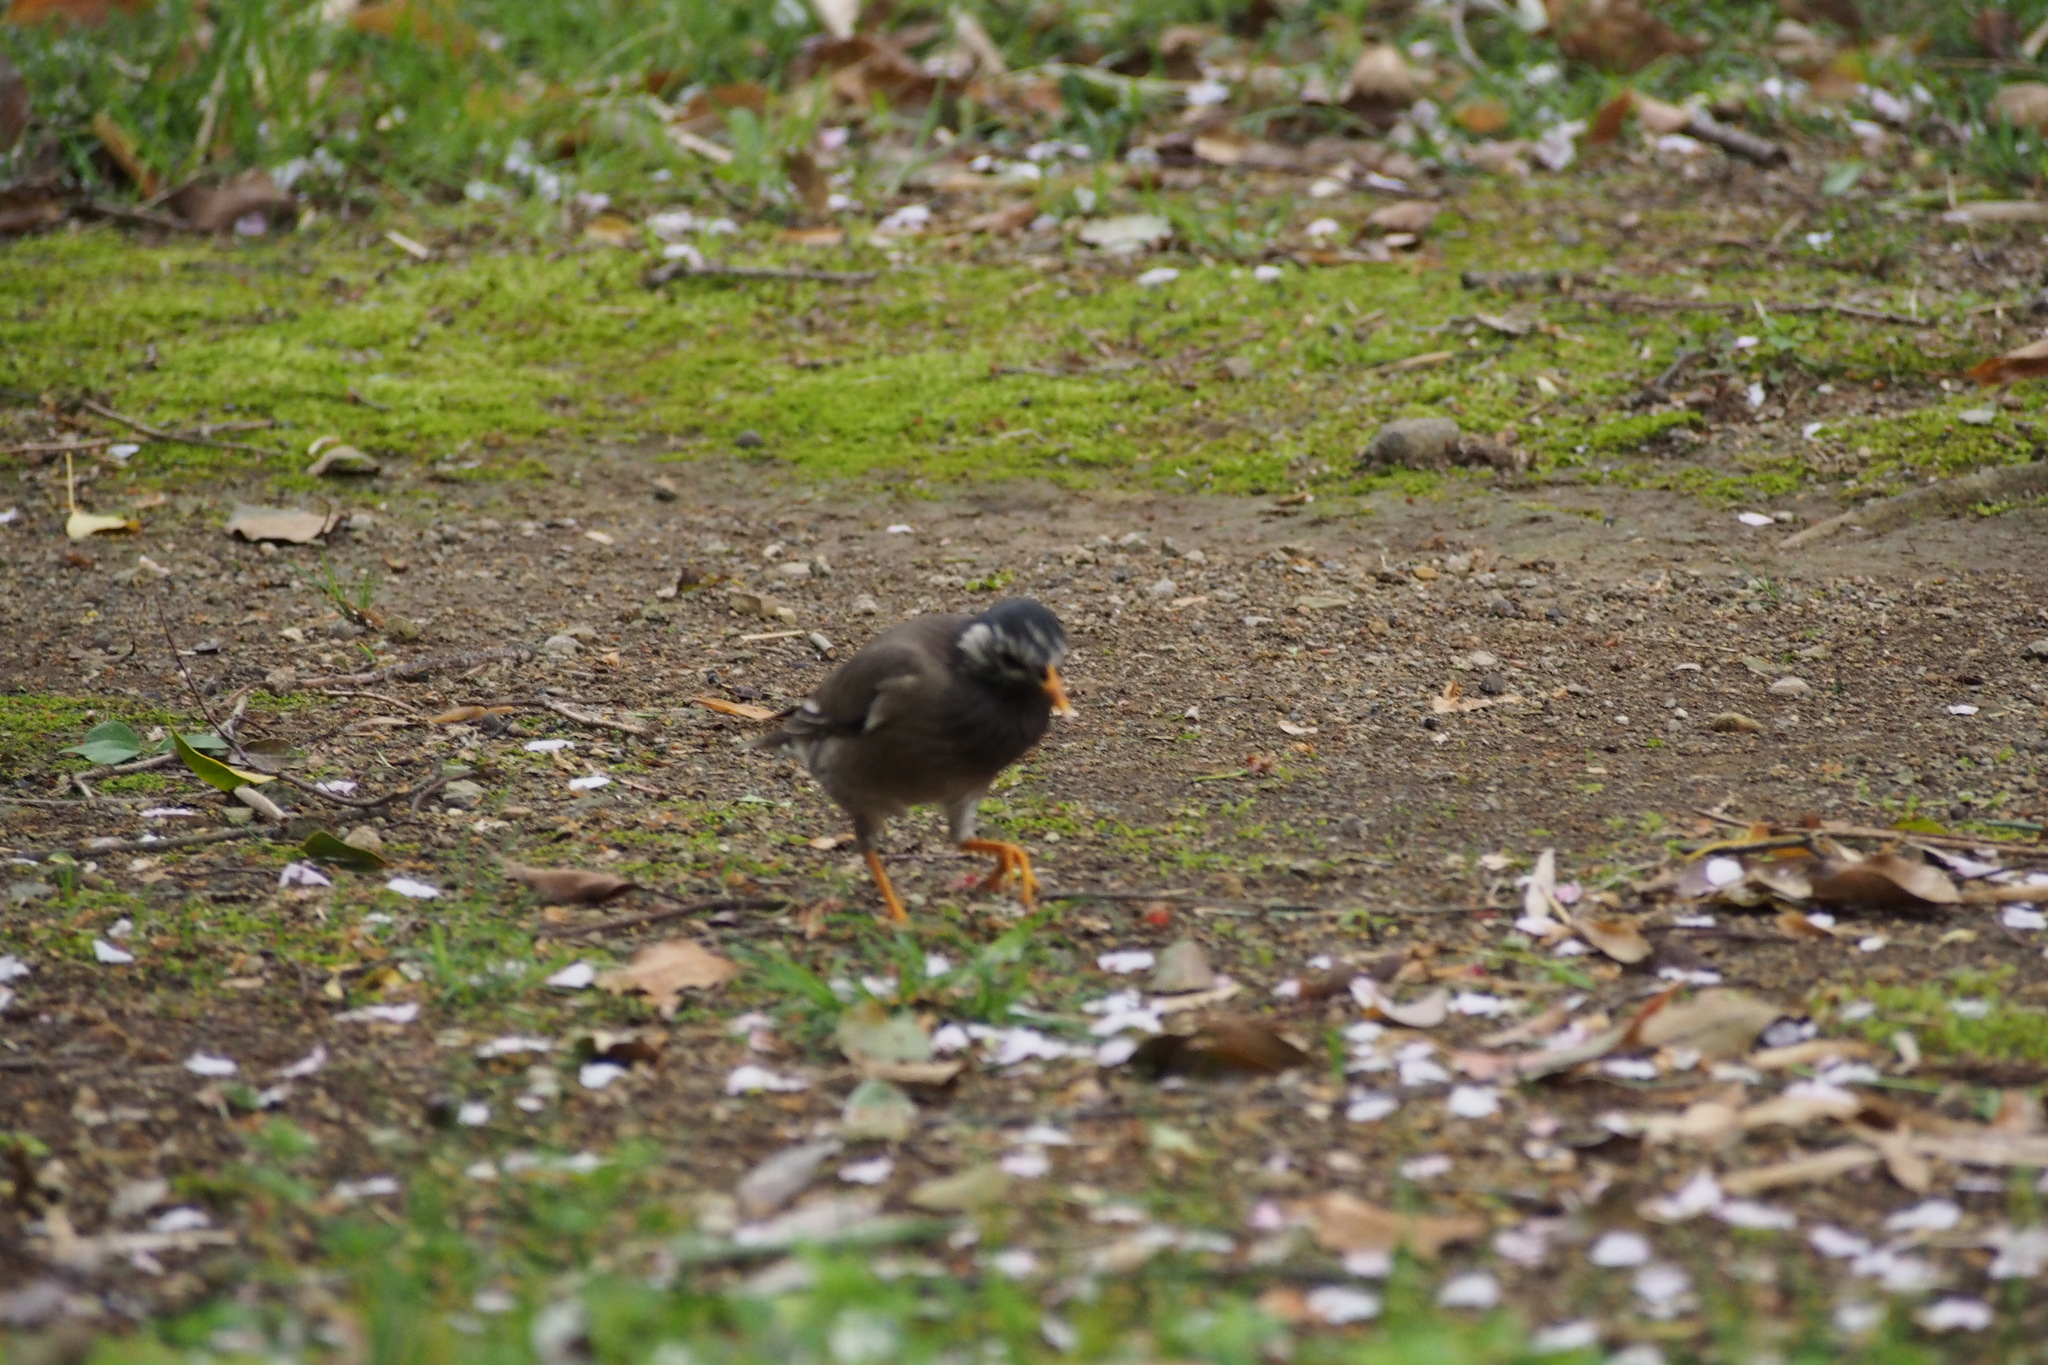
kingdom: Animalia
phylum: Chordata
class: Aves
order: Passeriformes
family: Sturnidae
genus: Spodiopsar
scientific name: Spodiopsar cineraceus
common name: White-cheeked starling
